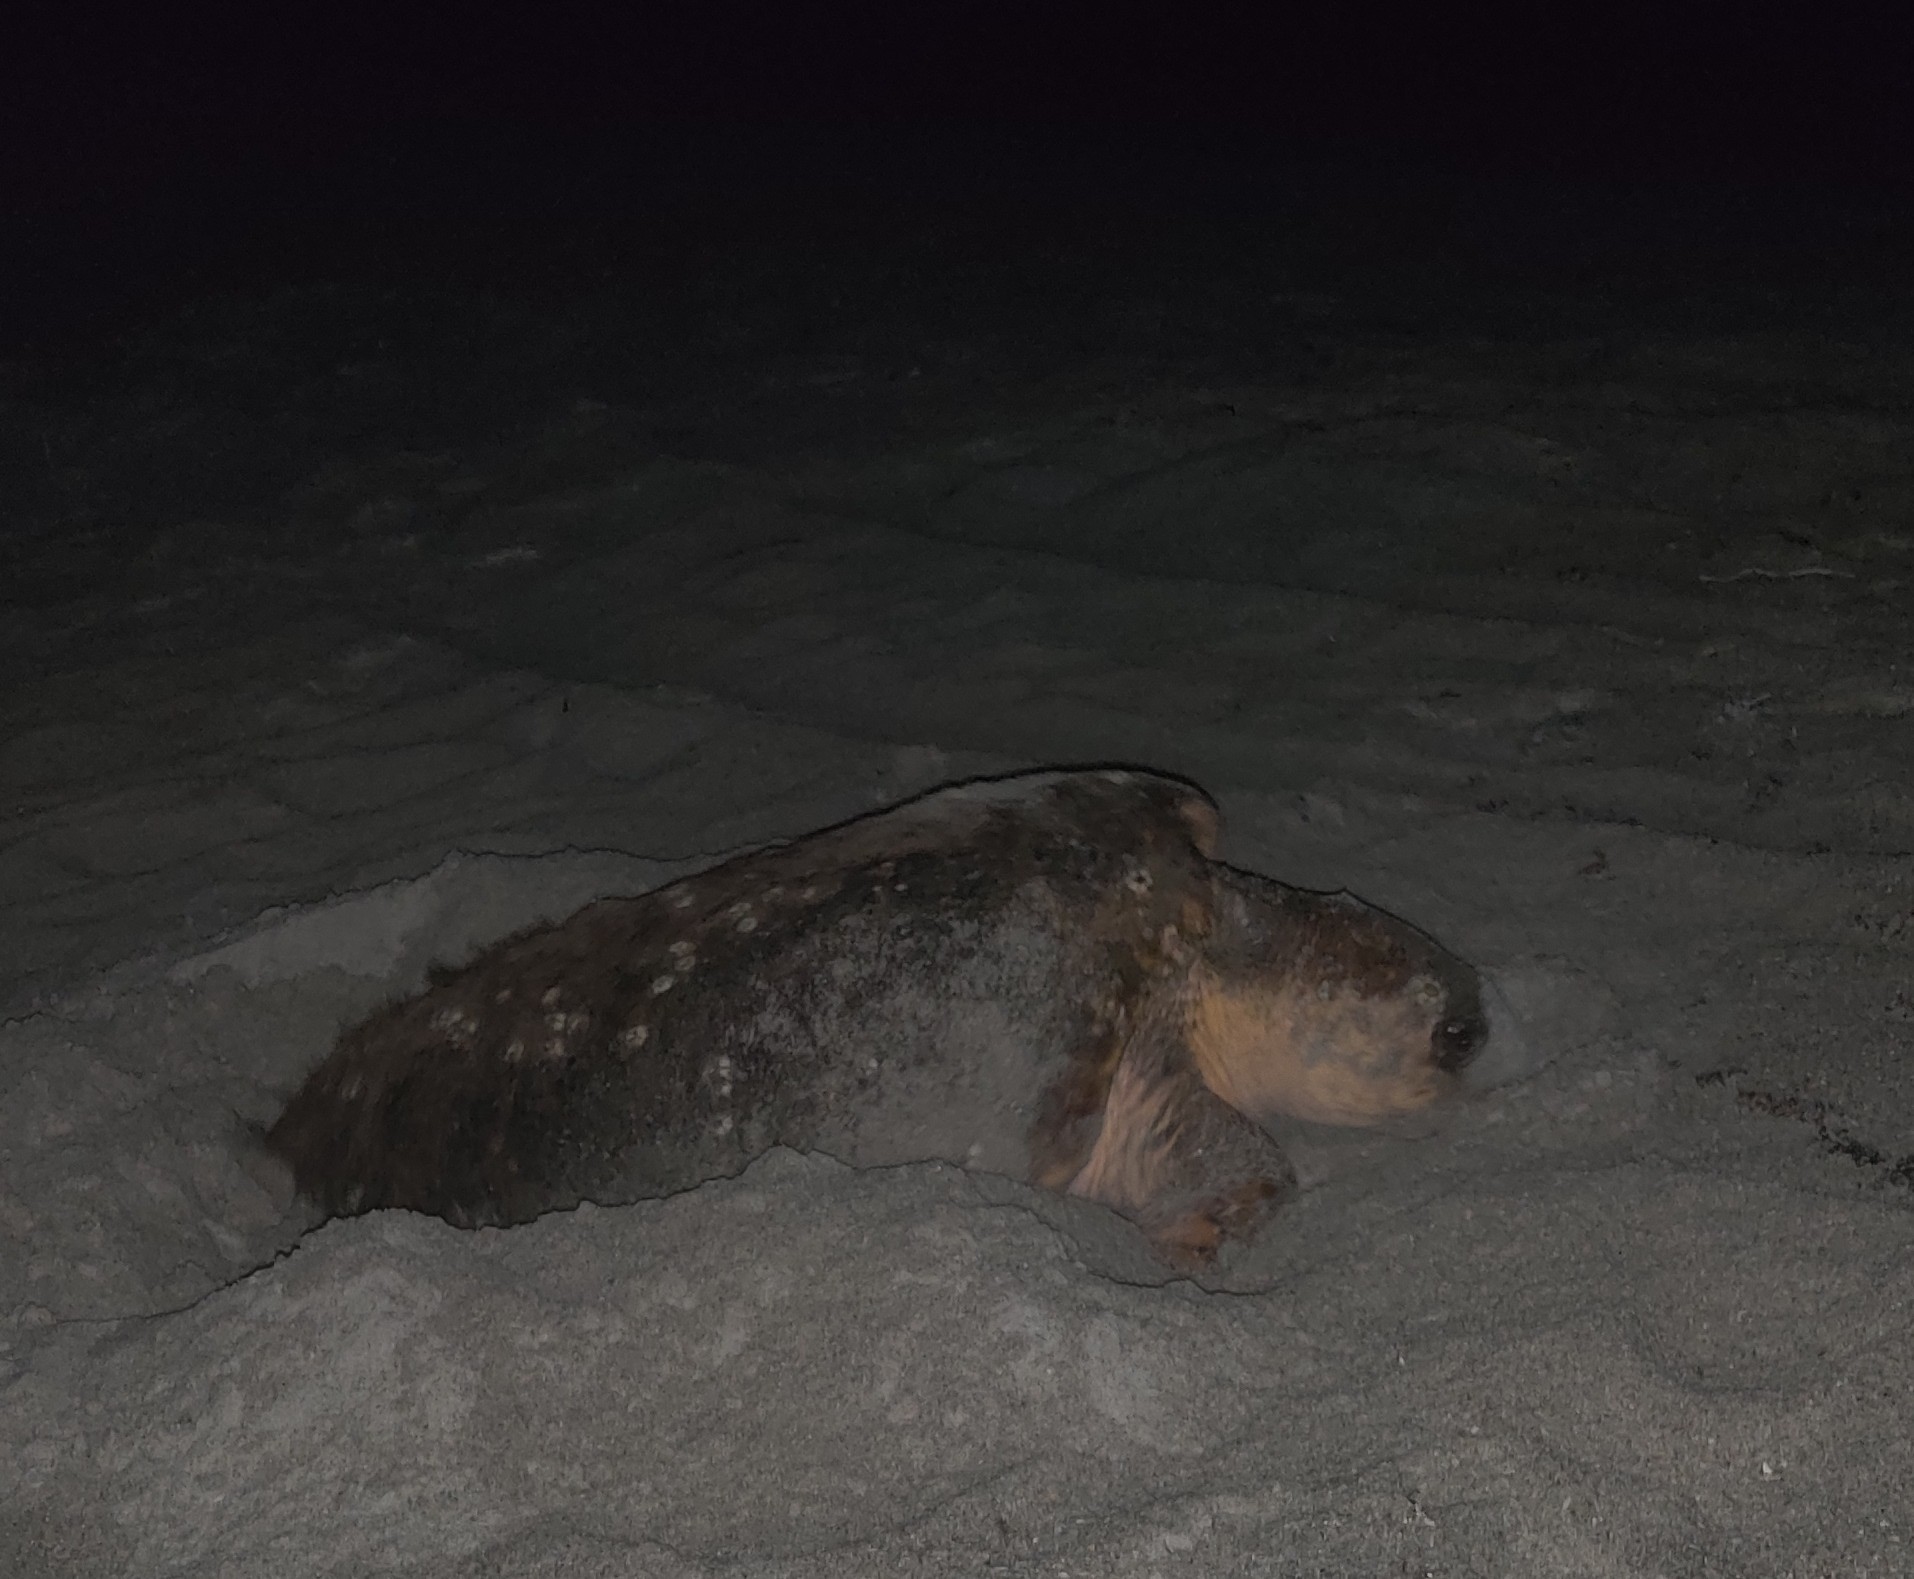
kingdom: Animalia
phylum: Chordata
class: Testudines
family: Cheloniidae
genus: Caretta
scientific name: Caretta caretta
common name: Loggerhead sea turtle
